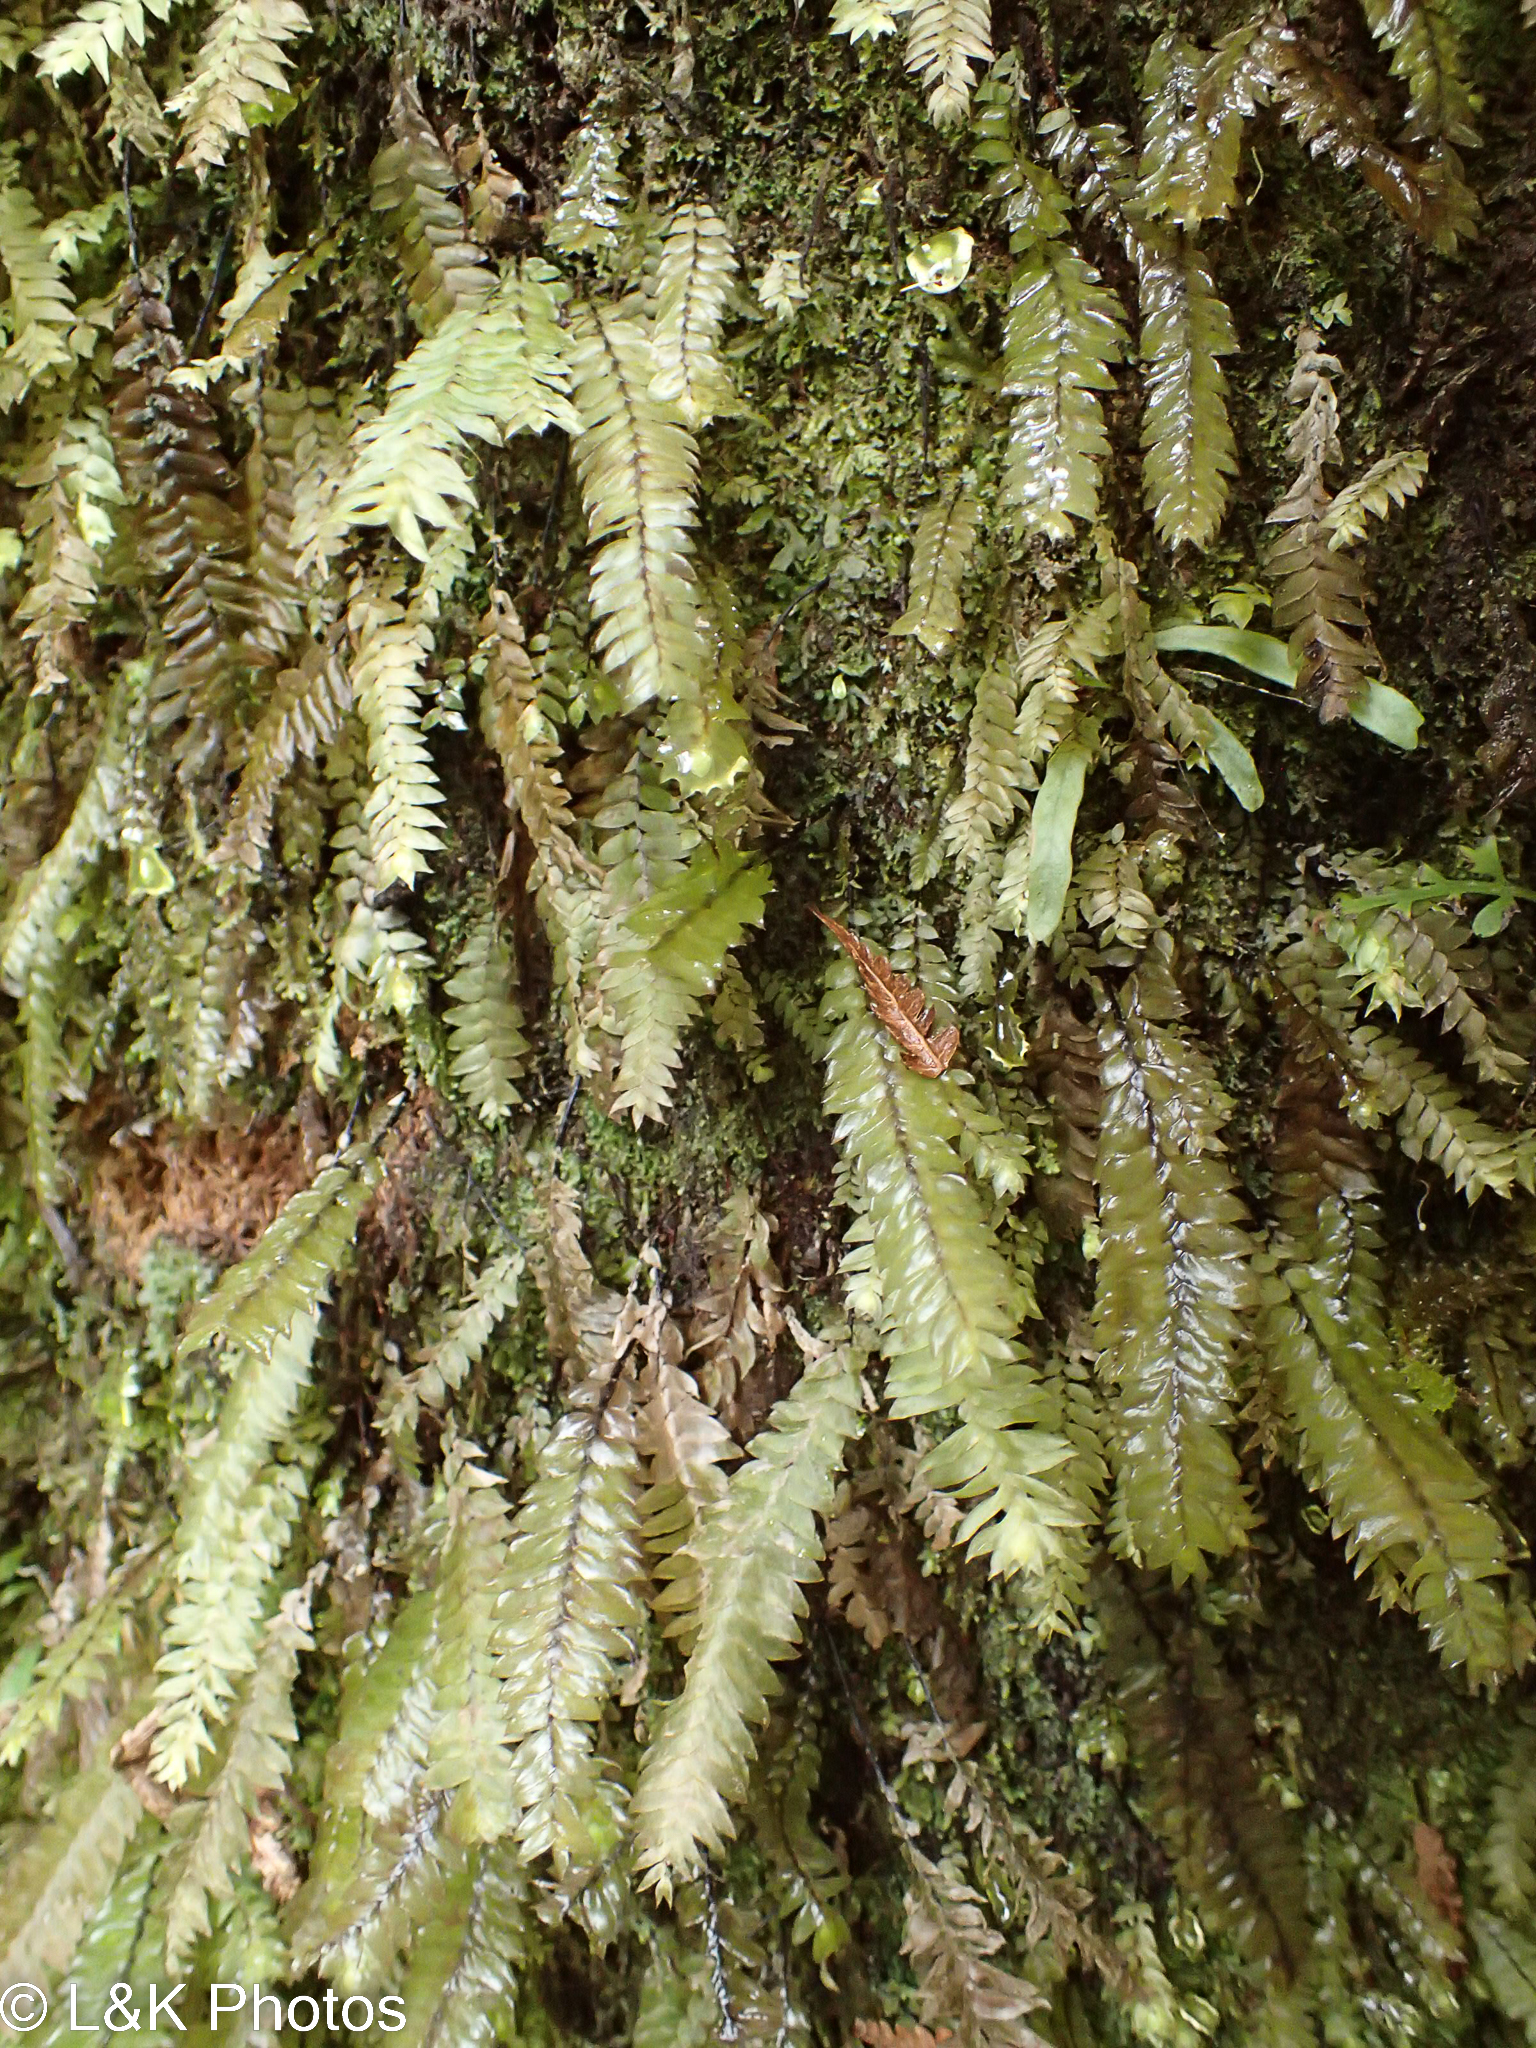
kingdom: Plantae
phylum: Bryophyta
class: Bryopsida
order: Hypopterygiales
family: Hypopterygiaceae
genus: Cyathophorum
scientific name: Cyathophorum bulbosum
